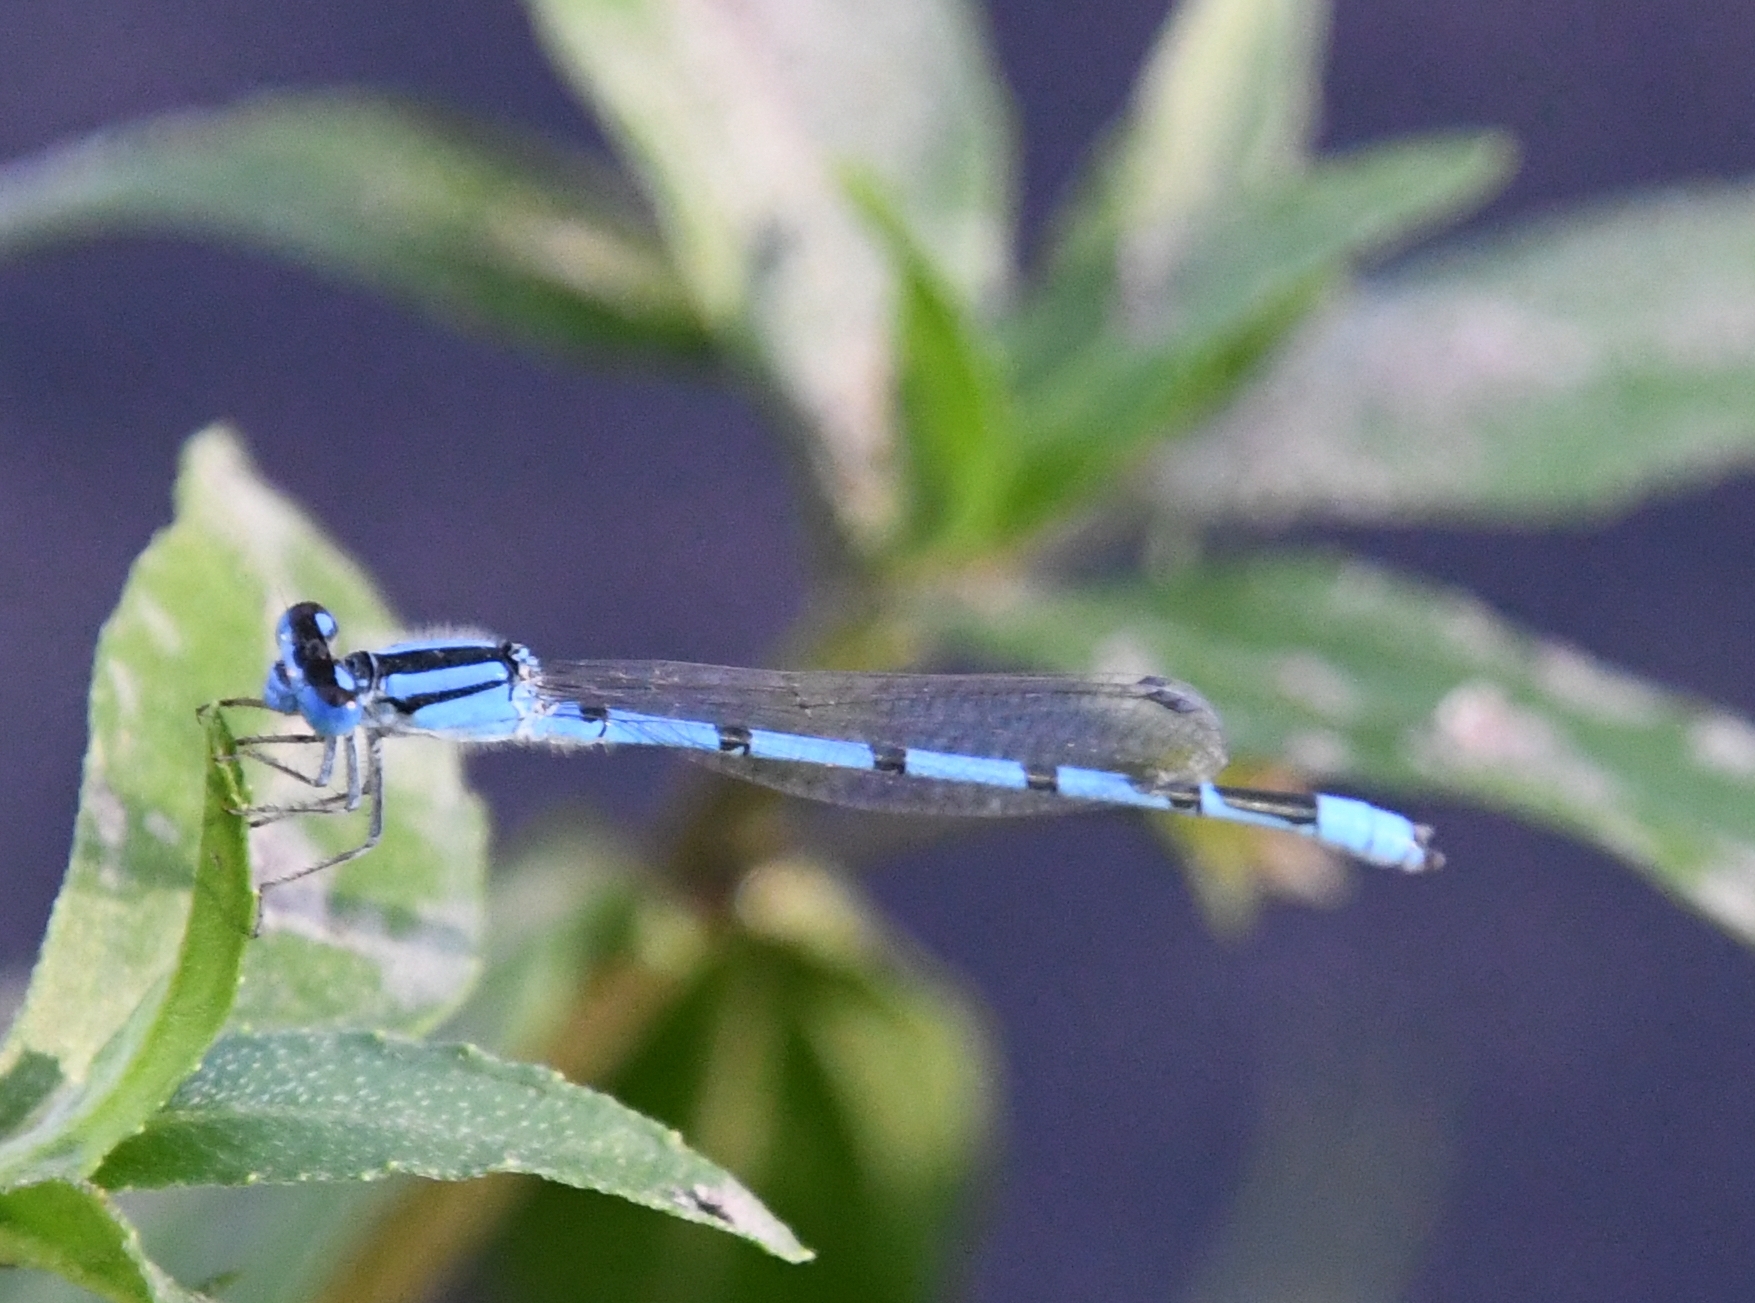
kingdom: Animalia
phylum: Arthropoda
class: Insecta
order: Odonata
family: Coenagrionidae
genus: Enallagma
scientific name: Enallagma civile
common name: Damselfly
